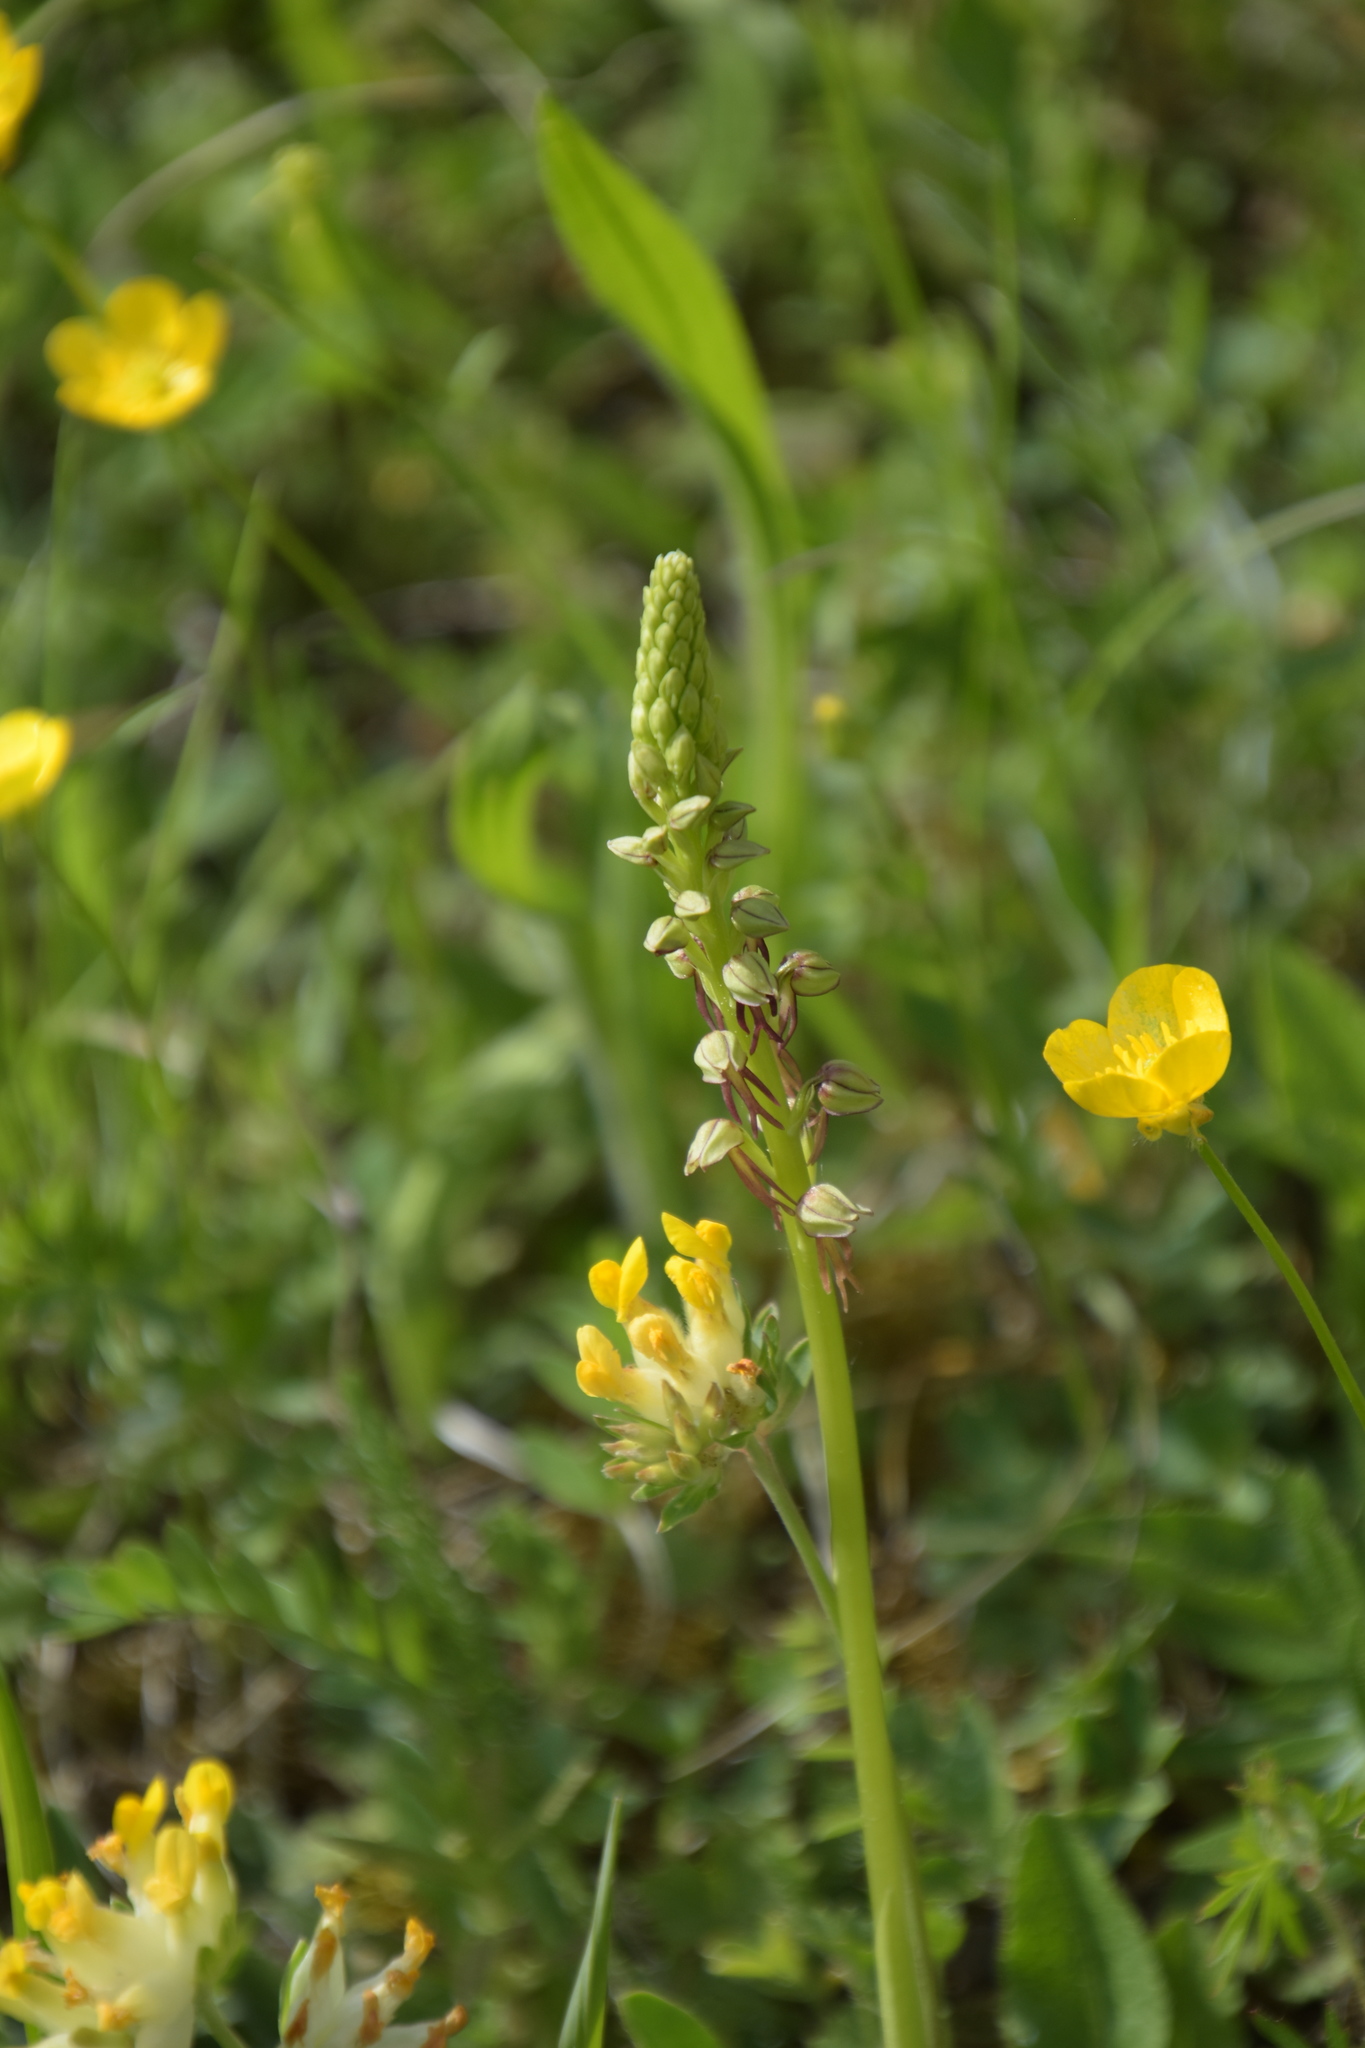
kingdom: Plantae
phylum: Tracheophyta
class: Liliopsida
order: Asparagales
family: Orchidaceae
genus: Orchis
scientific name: Orchis anthropophora
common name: Man orchid
